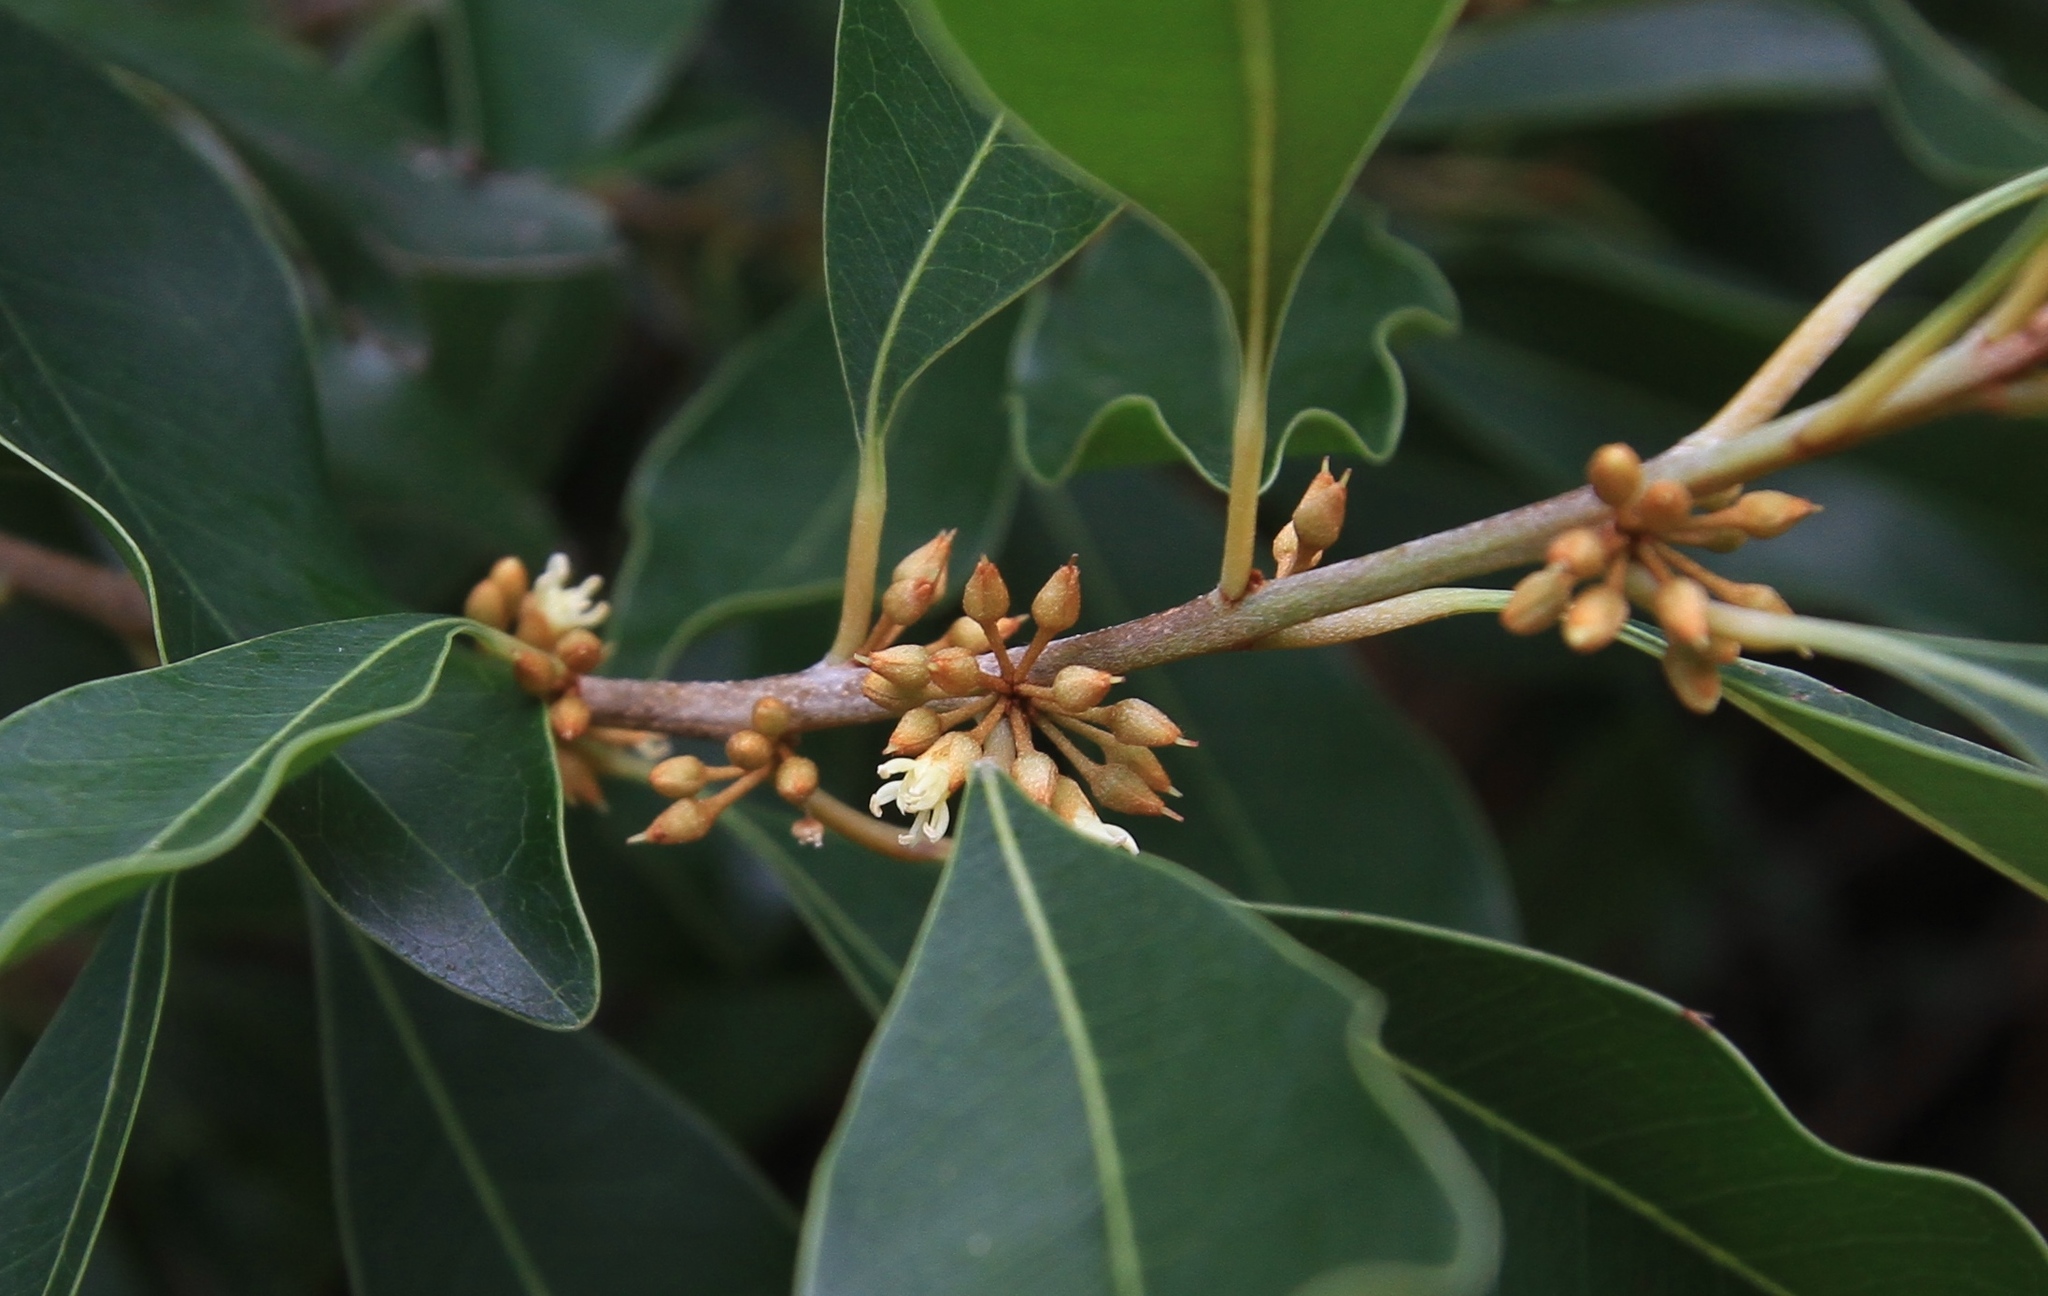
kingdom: Plantae
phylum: Tracheophyta
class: Magnoliopsida
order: Ericales
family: Sapotaceae
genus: Sideroxylon
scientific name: Sideroxylon salicifolium
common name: White bully
